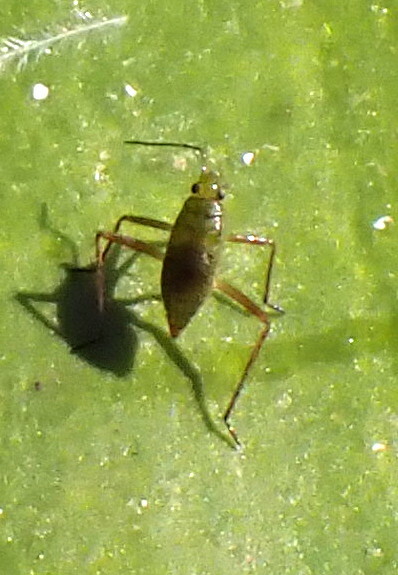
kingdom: Animalia
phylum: Arthropoda
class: Insecta
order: Hemiptera
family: Mesoveliidae
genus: Mesovelia
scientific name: Mesovelia
